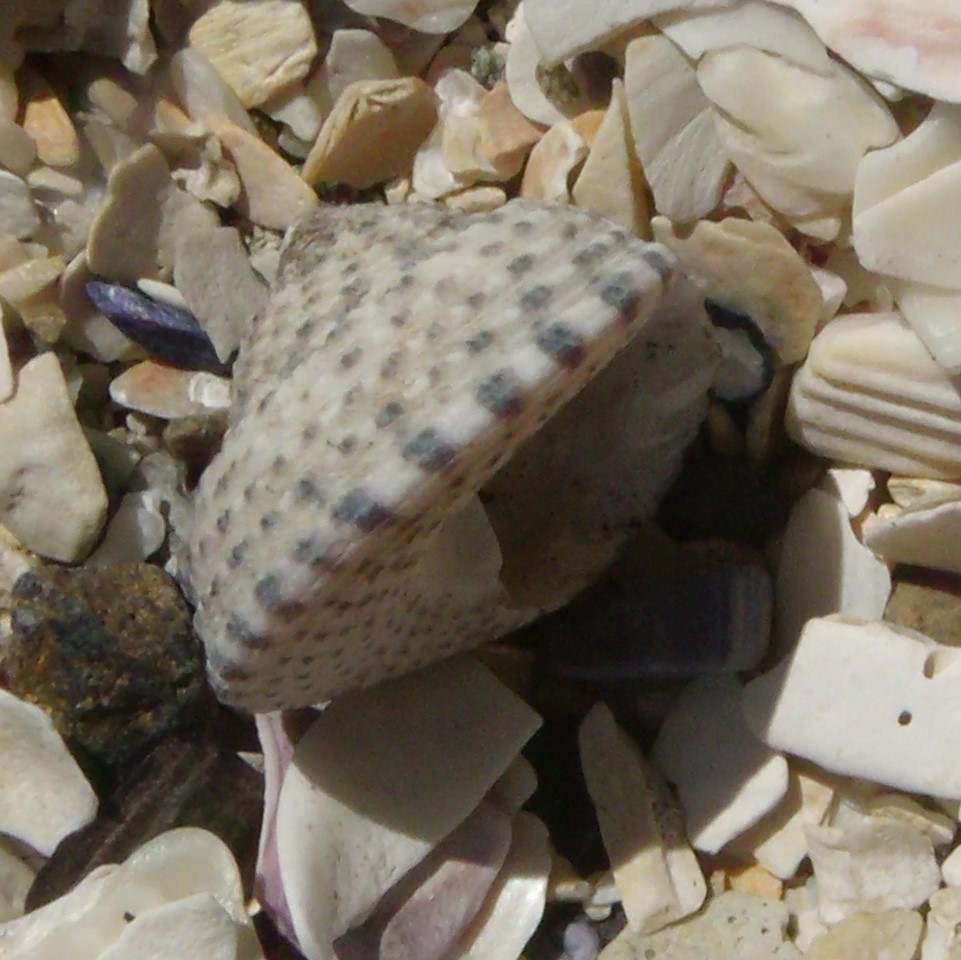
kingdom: Animalia
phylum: Mollusca
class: Gastropoda
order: Trochida
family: Trochidae
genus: Coelotrochus
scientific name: Coelotrochus tiaratus
